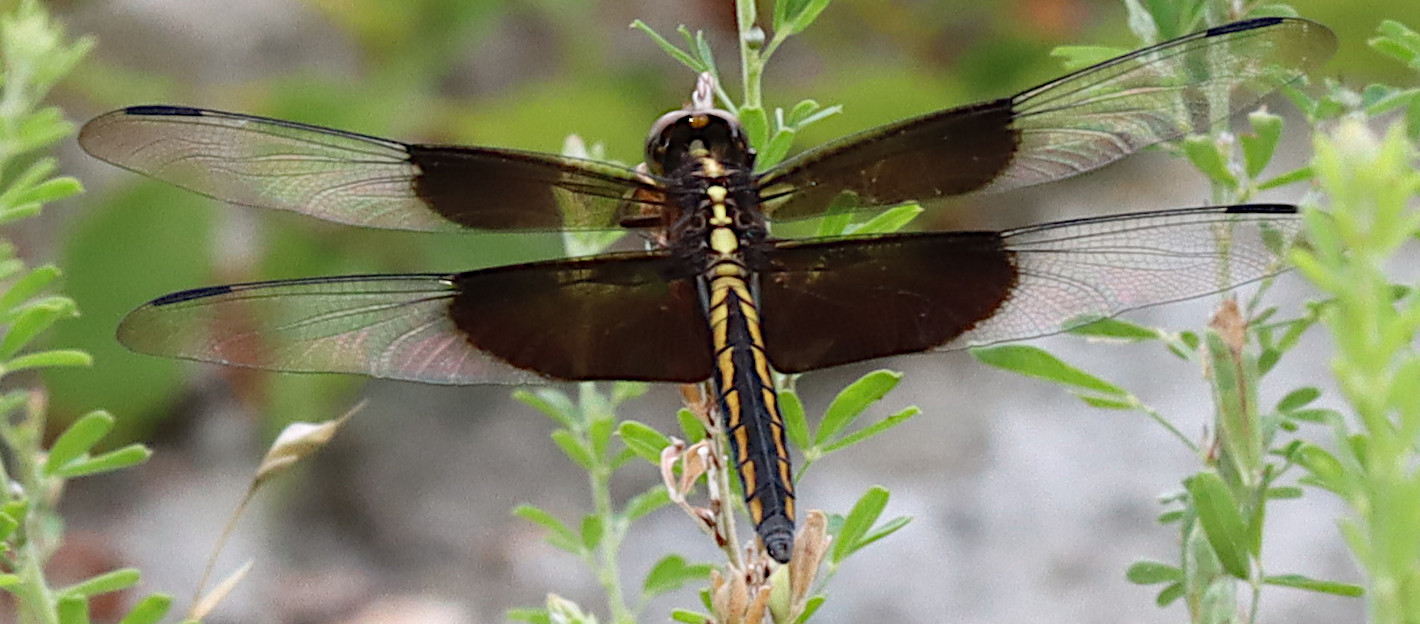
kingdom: Animalia
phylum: Arthropoda
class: Insecta
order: Odonata
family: Libellulidae
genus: Libellula
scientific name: Libellula luctuosa
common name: Widow skimmer
